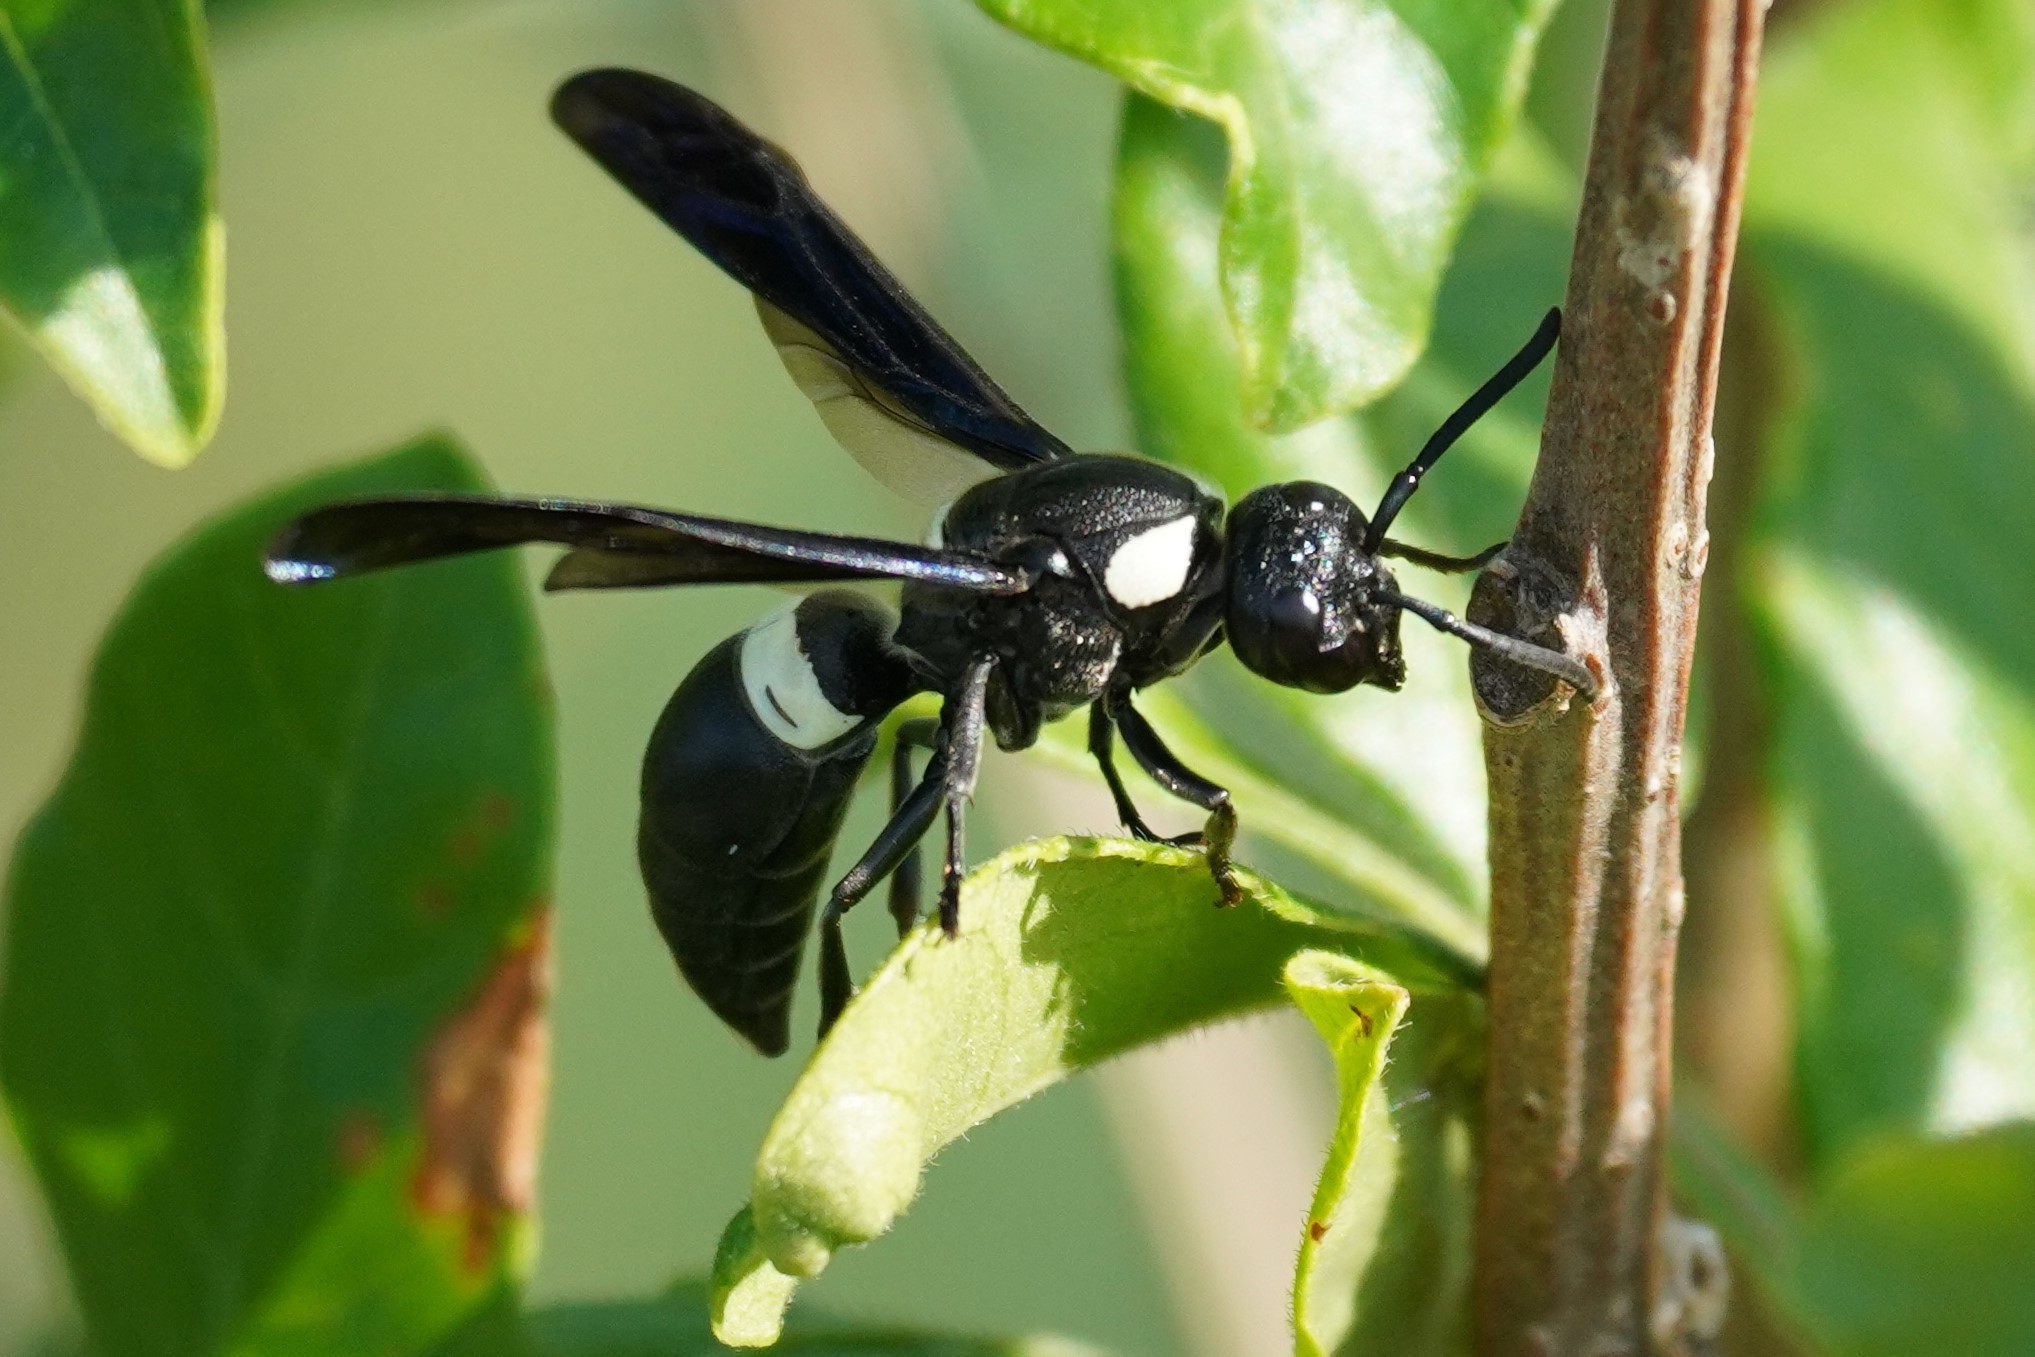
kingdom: Animalia
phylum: Arthropoda
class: Insecta
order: Hymenoptera
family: Eumenidae
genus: Monobia
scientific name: Monobia quadridens
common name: Four-toothed mason wasp
